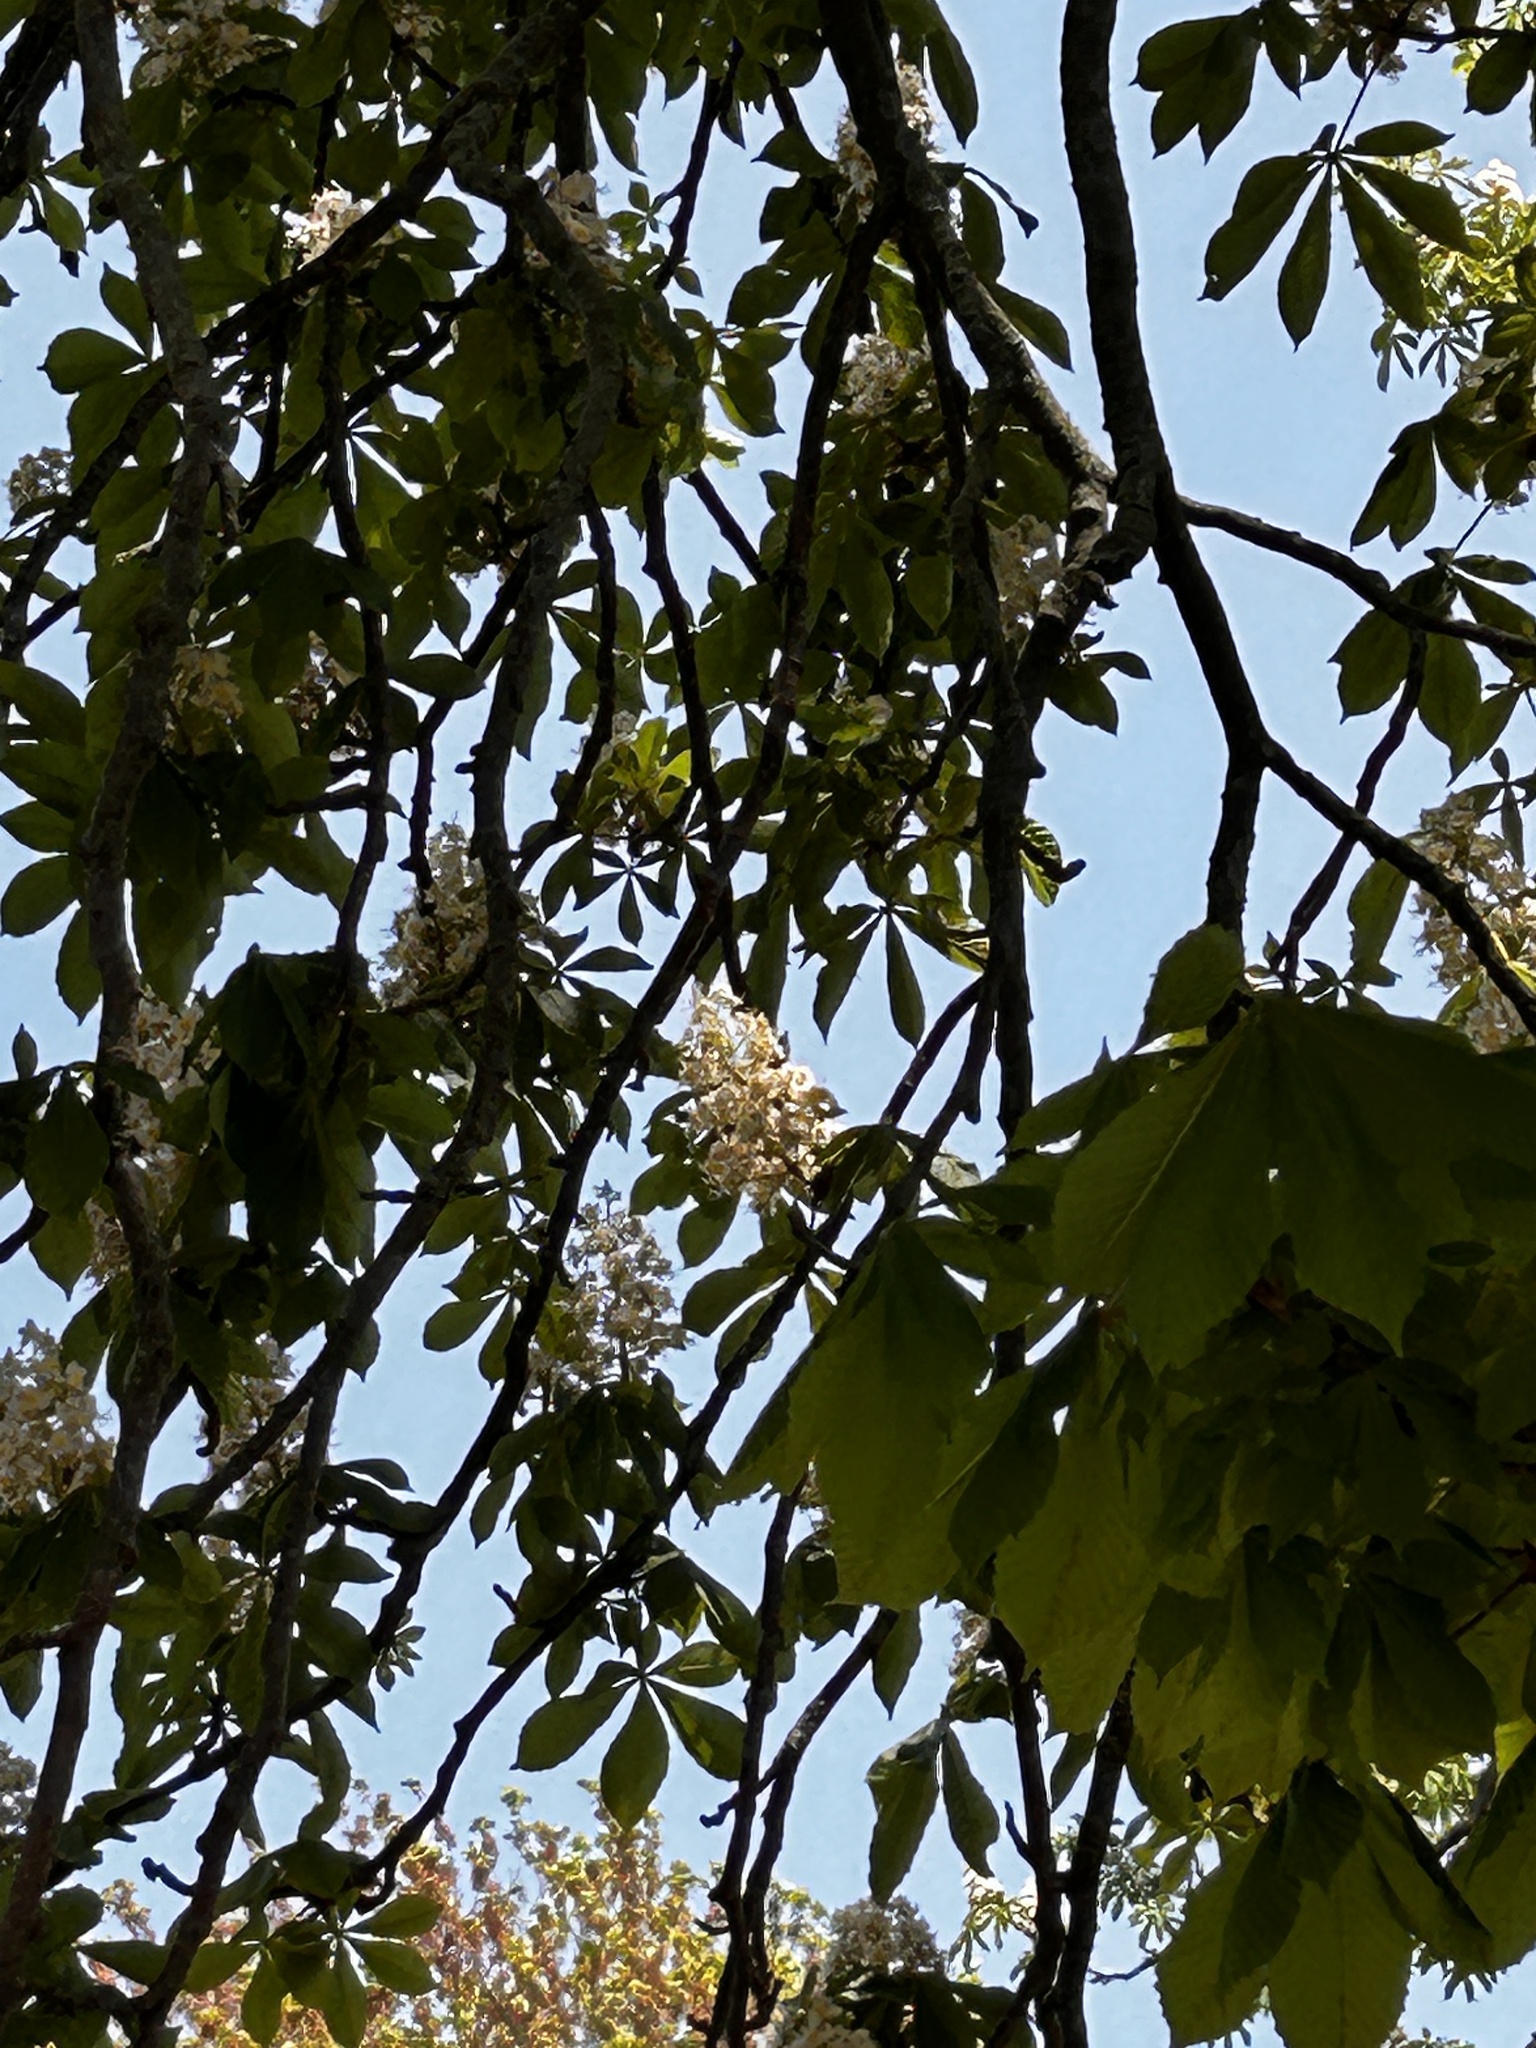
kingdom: Plantae
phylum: Tracheophyta
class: Magnoliopsida
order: Sapindales
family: Sapindaceae
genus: Aesculus
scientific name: Aesculus hippocastanum
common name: Horse-chestnut
